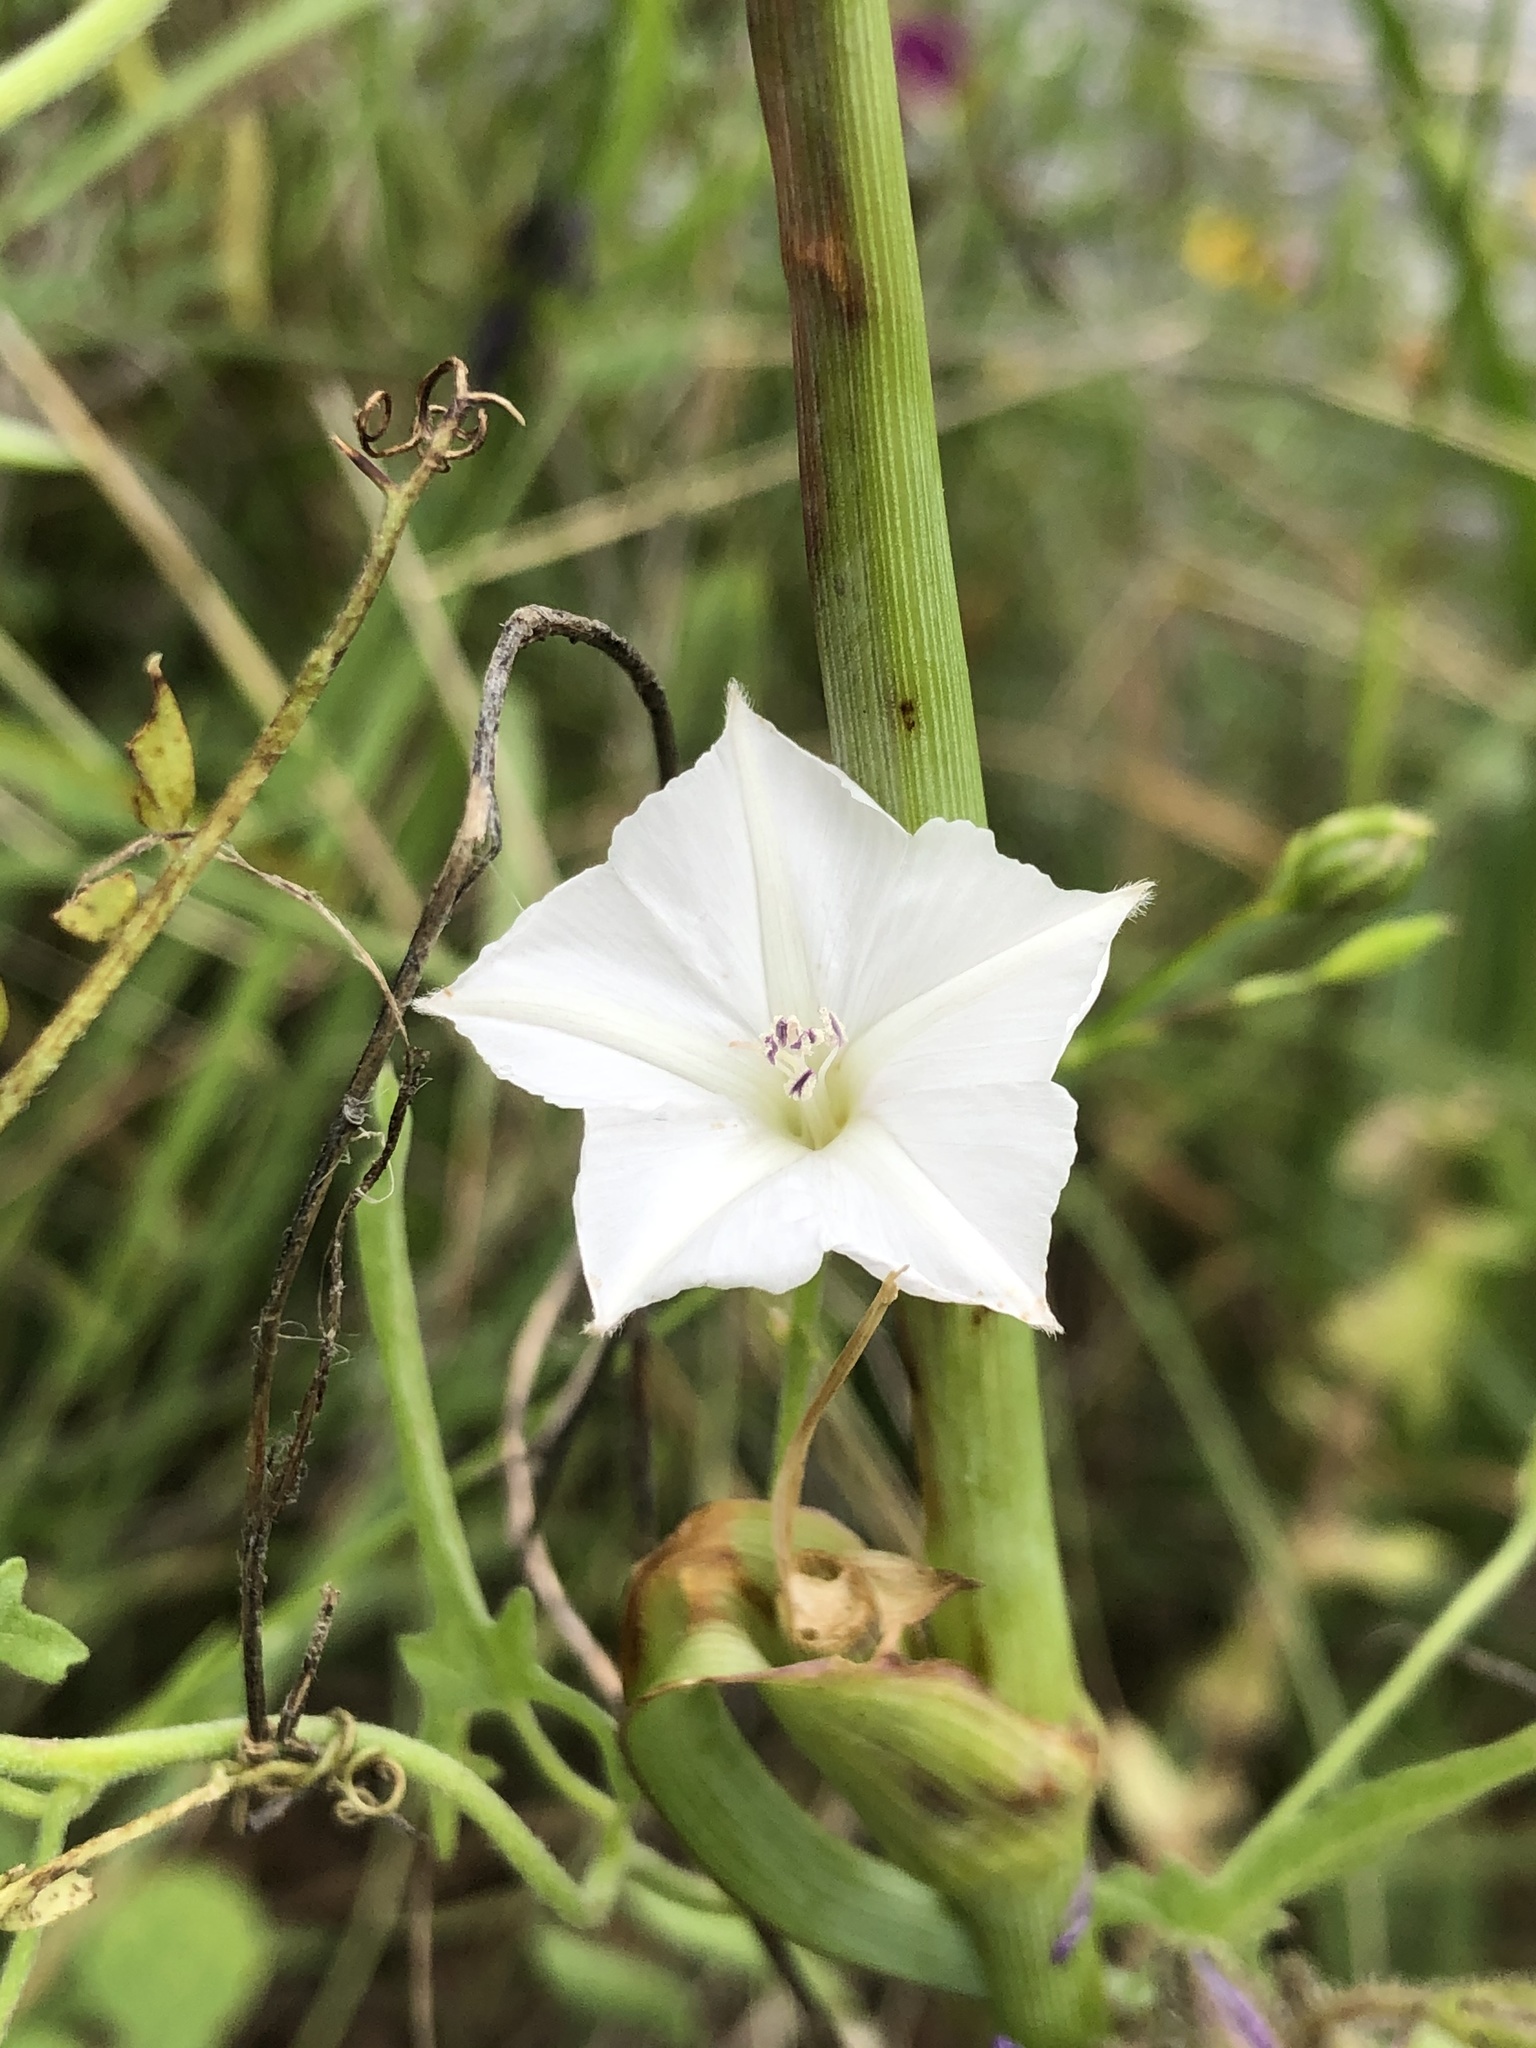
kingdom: Plantae
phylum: Tracheophyta
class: Magnoliopsida
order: Solanales
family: Convolvulaceae
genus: Convolvulus
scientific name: Convolvulus equitans
